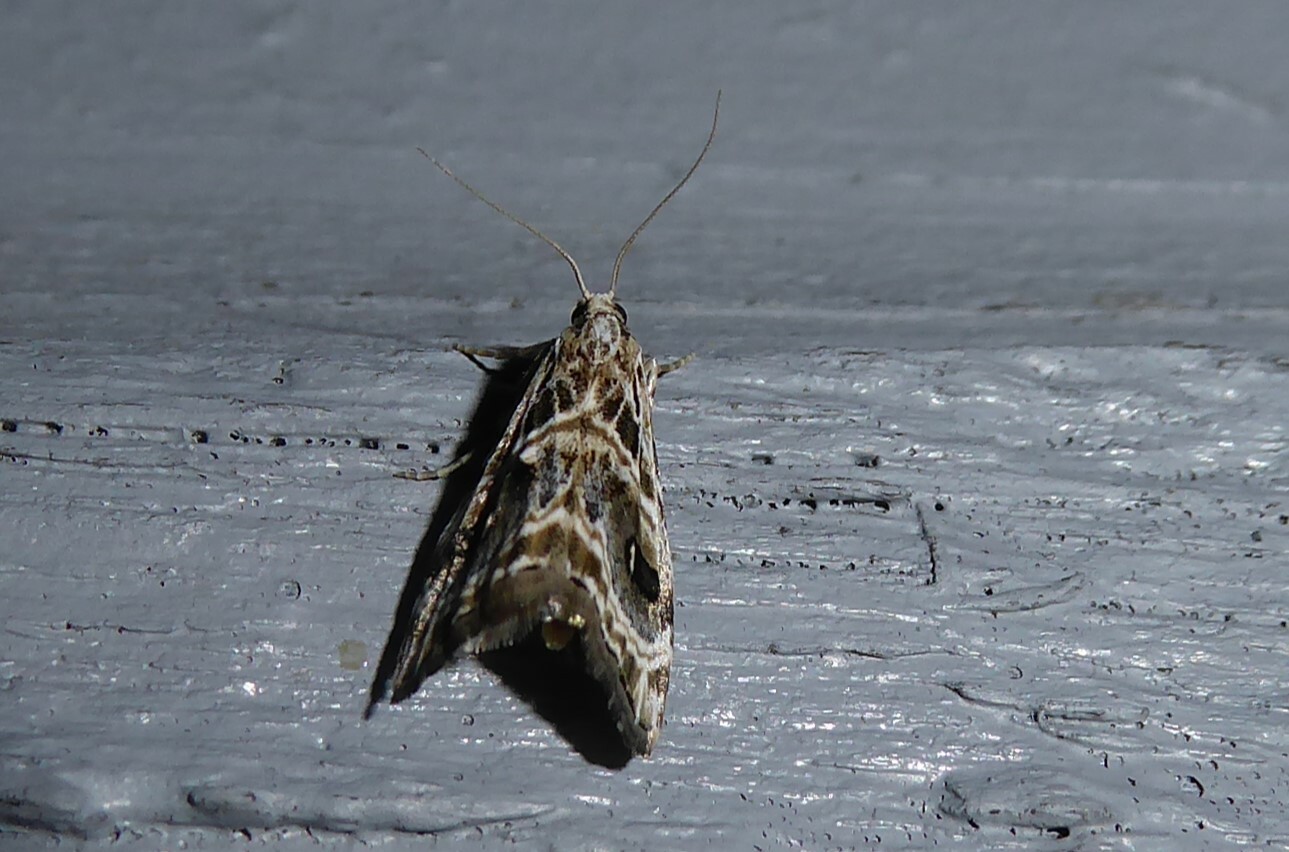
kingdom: Animalia
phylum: Arthropoda
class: Insecta
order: Lepidoptera
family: Crambidae
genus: Gadira
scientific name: Gadira acerella
